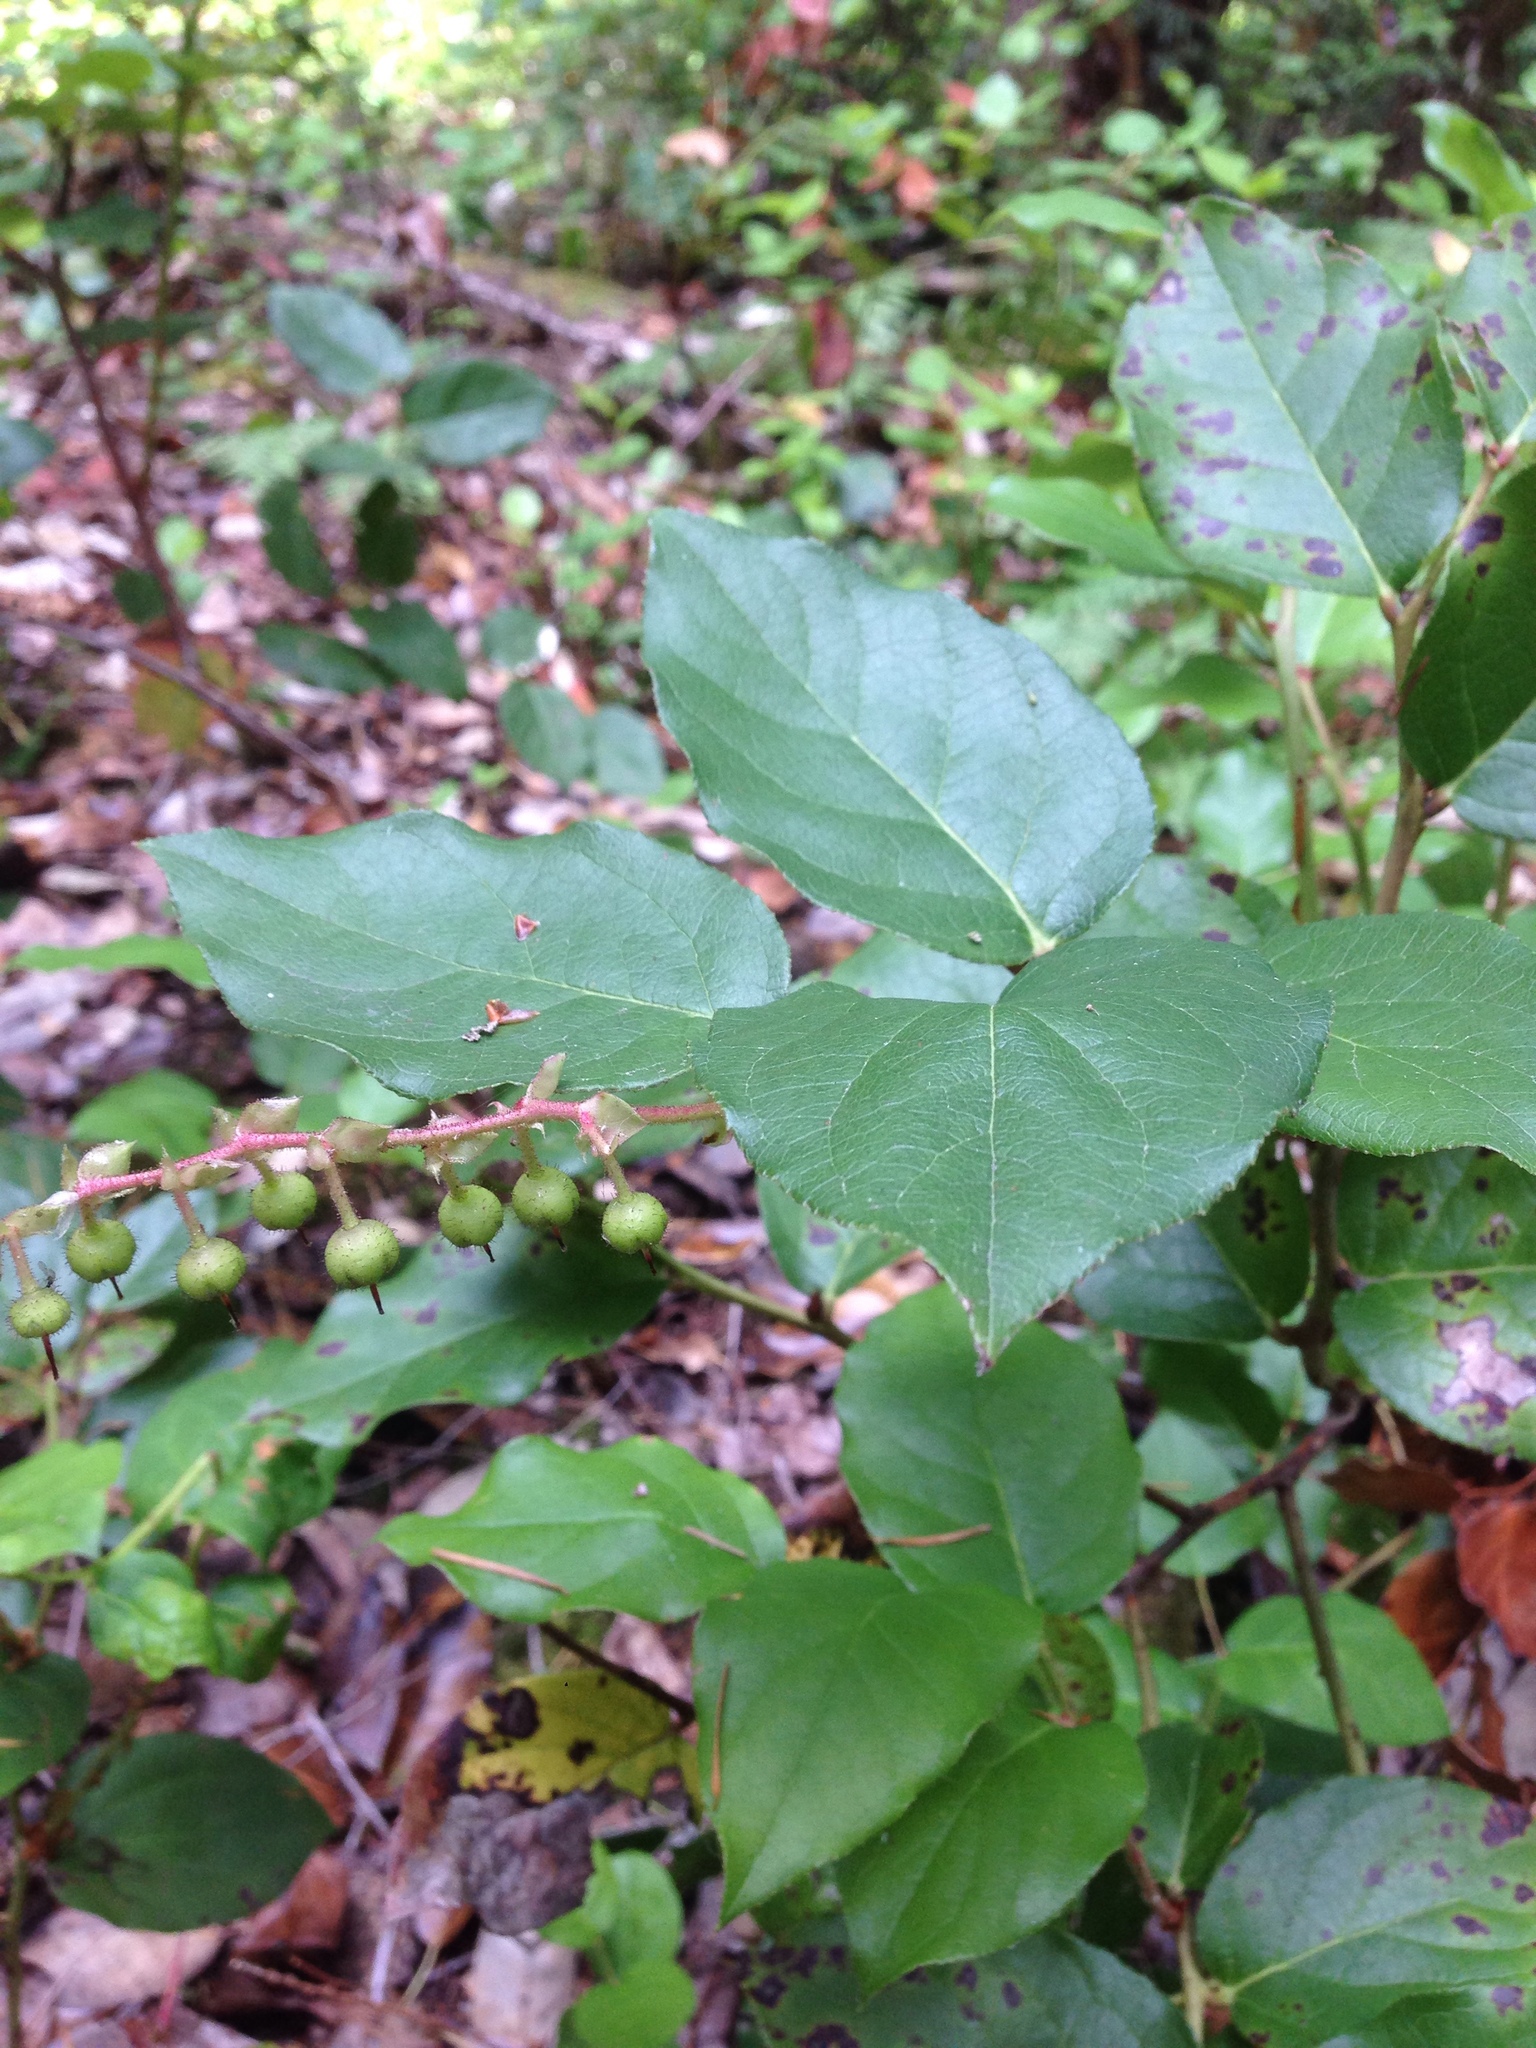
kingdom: Plantae
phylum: Tracheophyta
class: Magnoliopsida
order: Ericales
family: Ericaceae
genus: Gaultheria
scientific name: Gaultheria shallon
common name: Shallon
